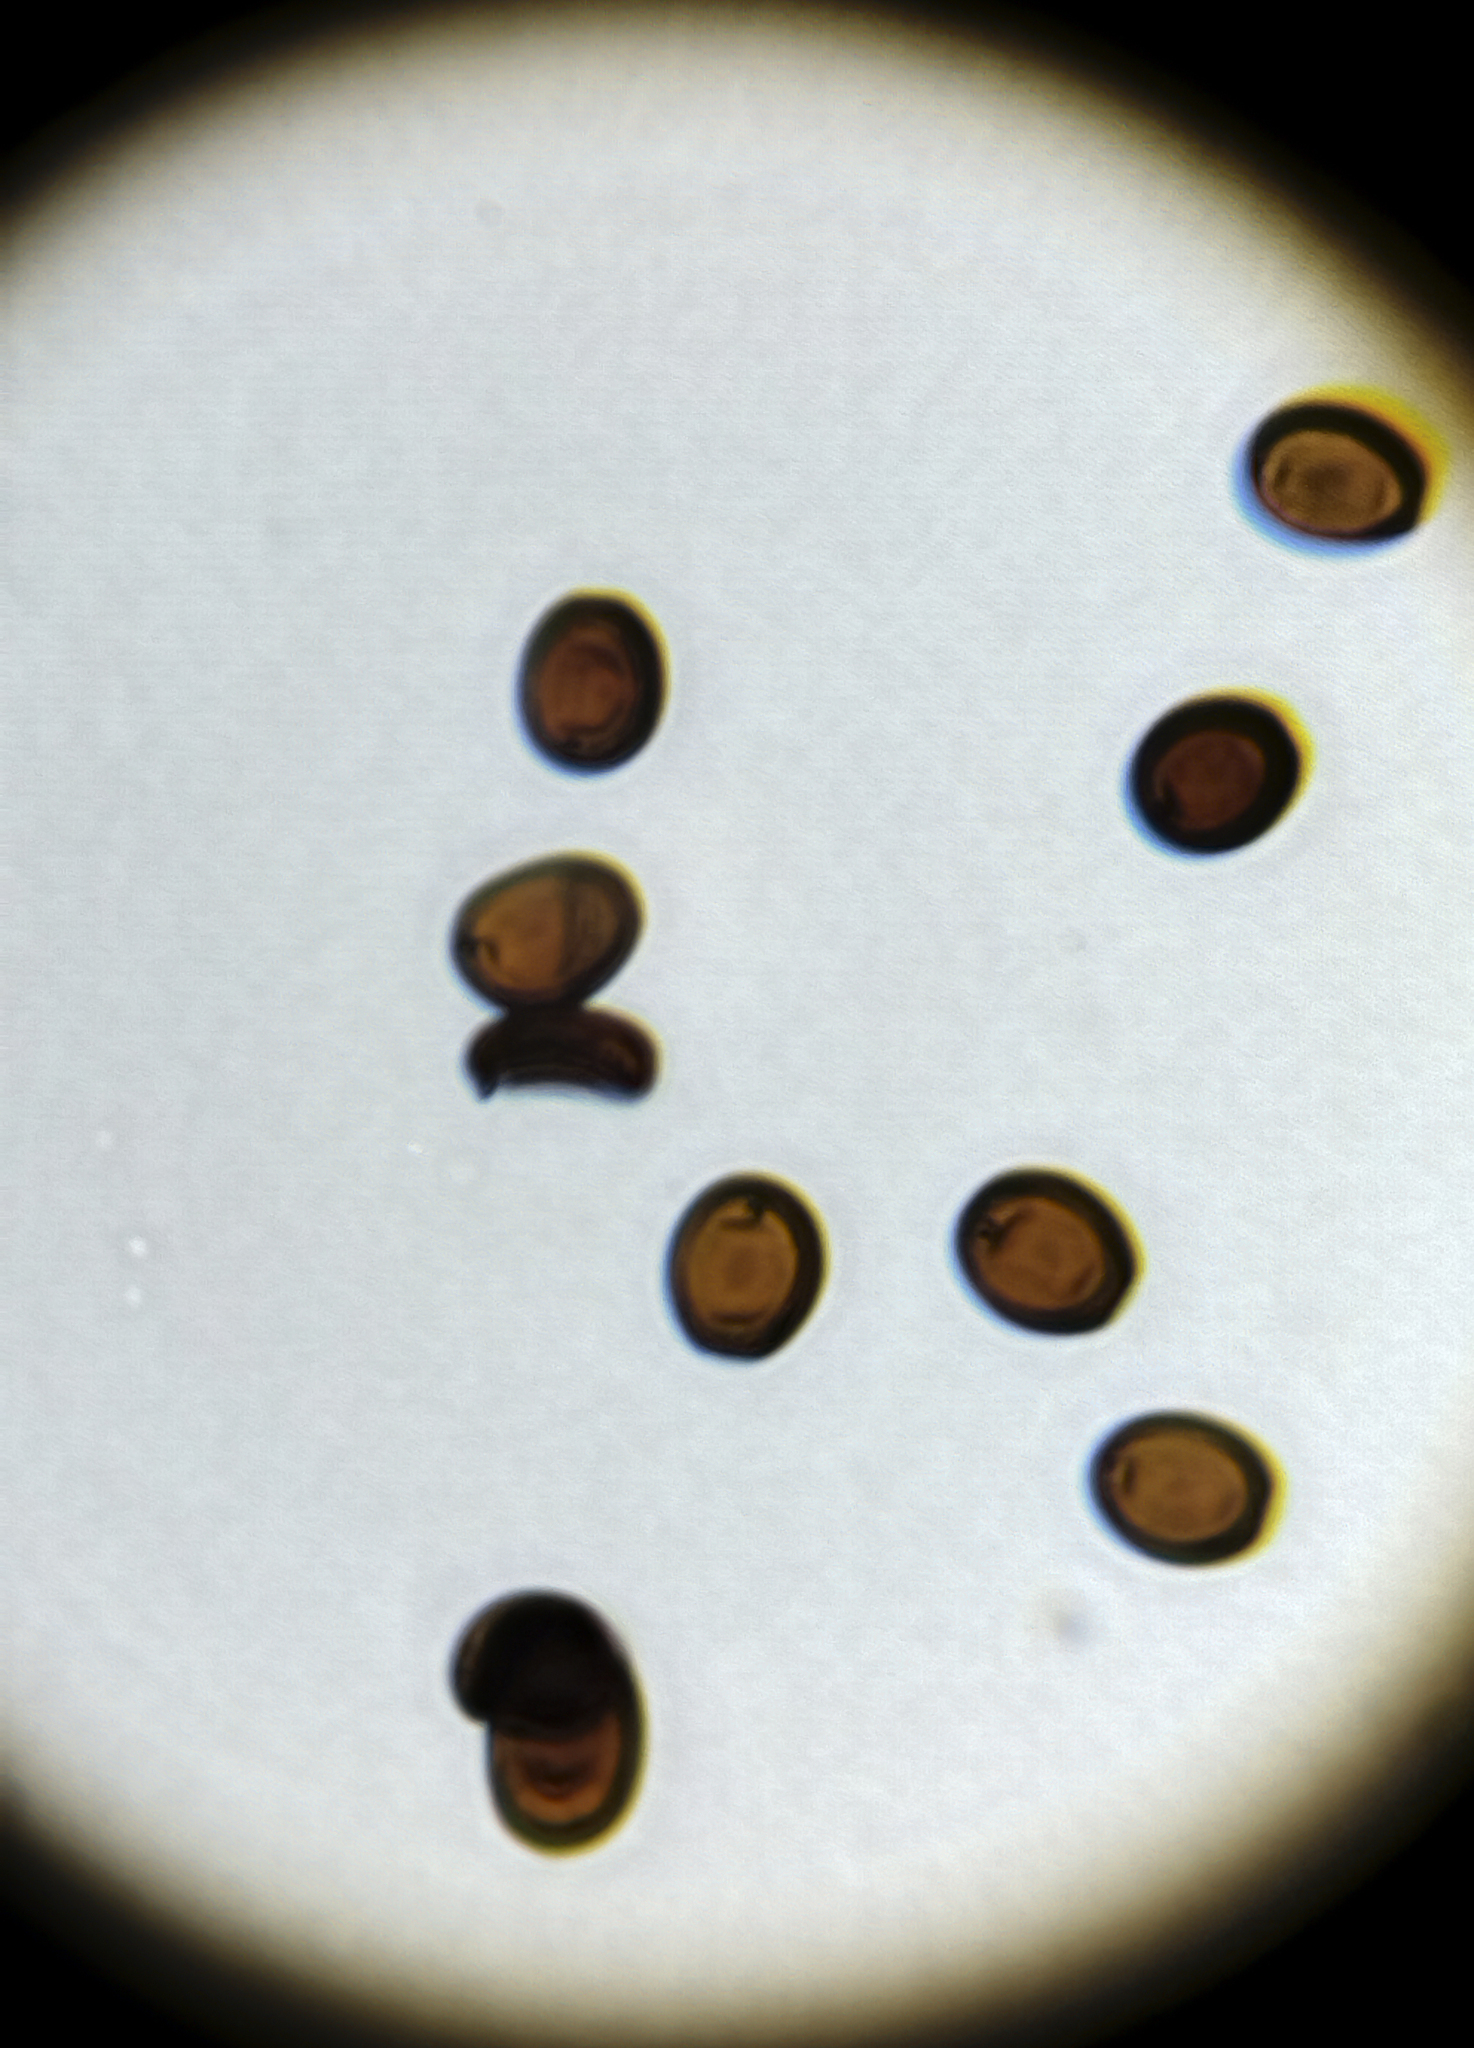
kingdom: Fungi
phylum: Basidiomycota
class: Agaricomycetes
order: Agaricales
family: Psathyrellaceae
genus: Psathyrella
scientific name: Psathyrella ammophila
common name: Dune brittlestem
